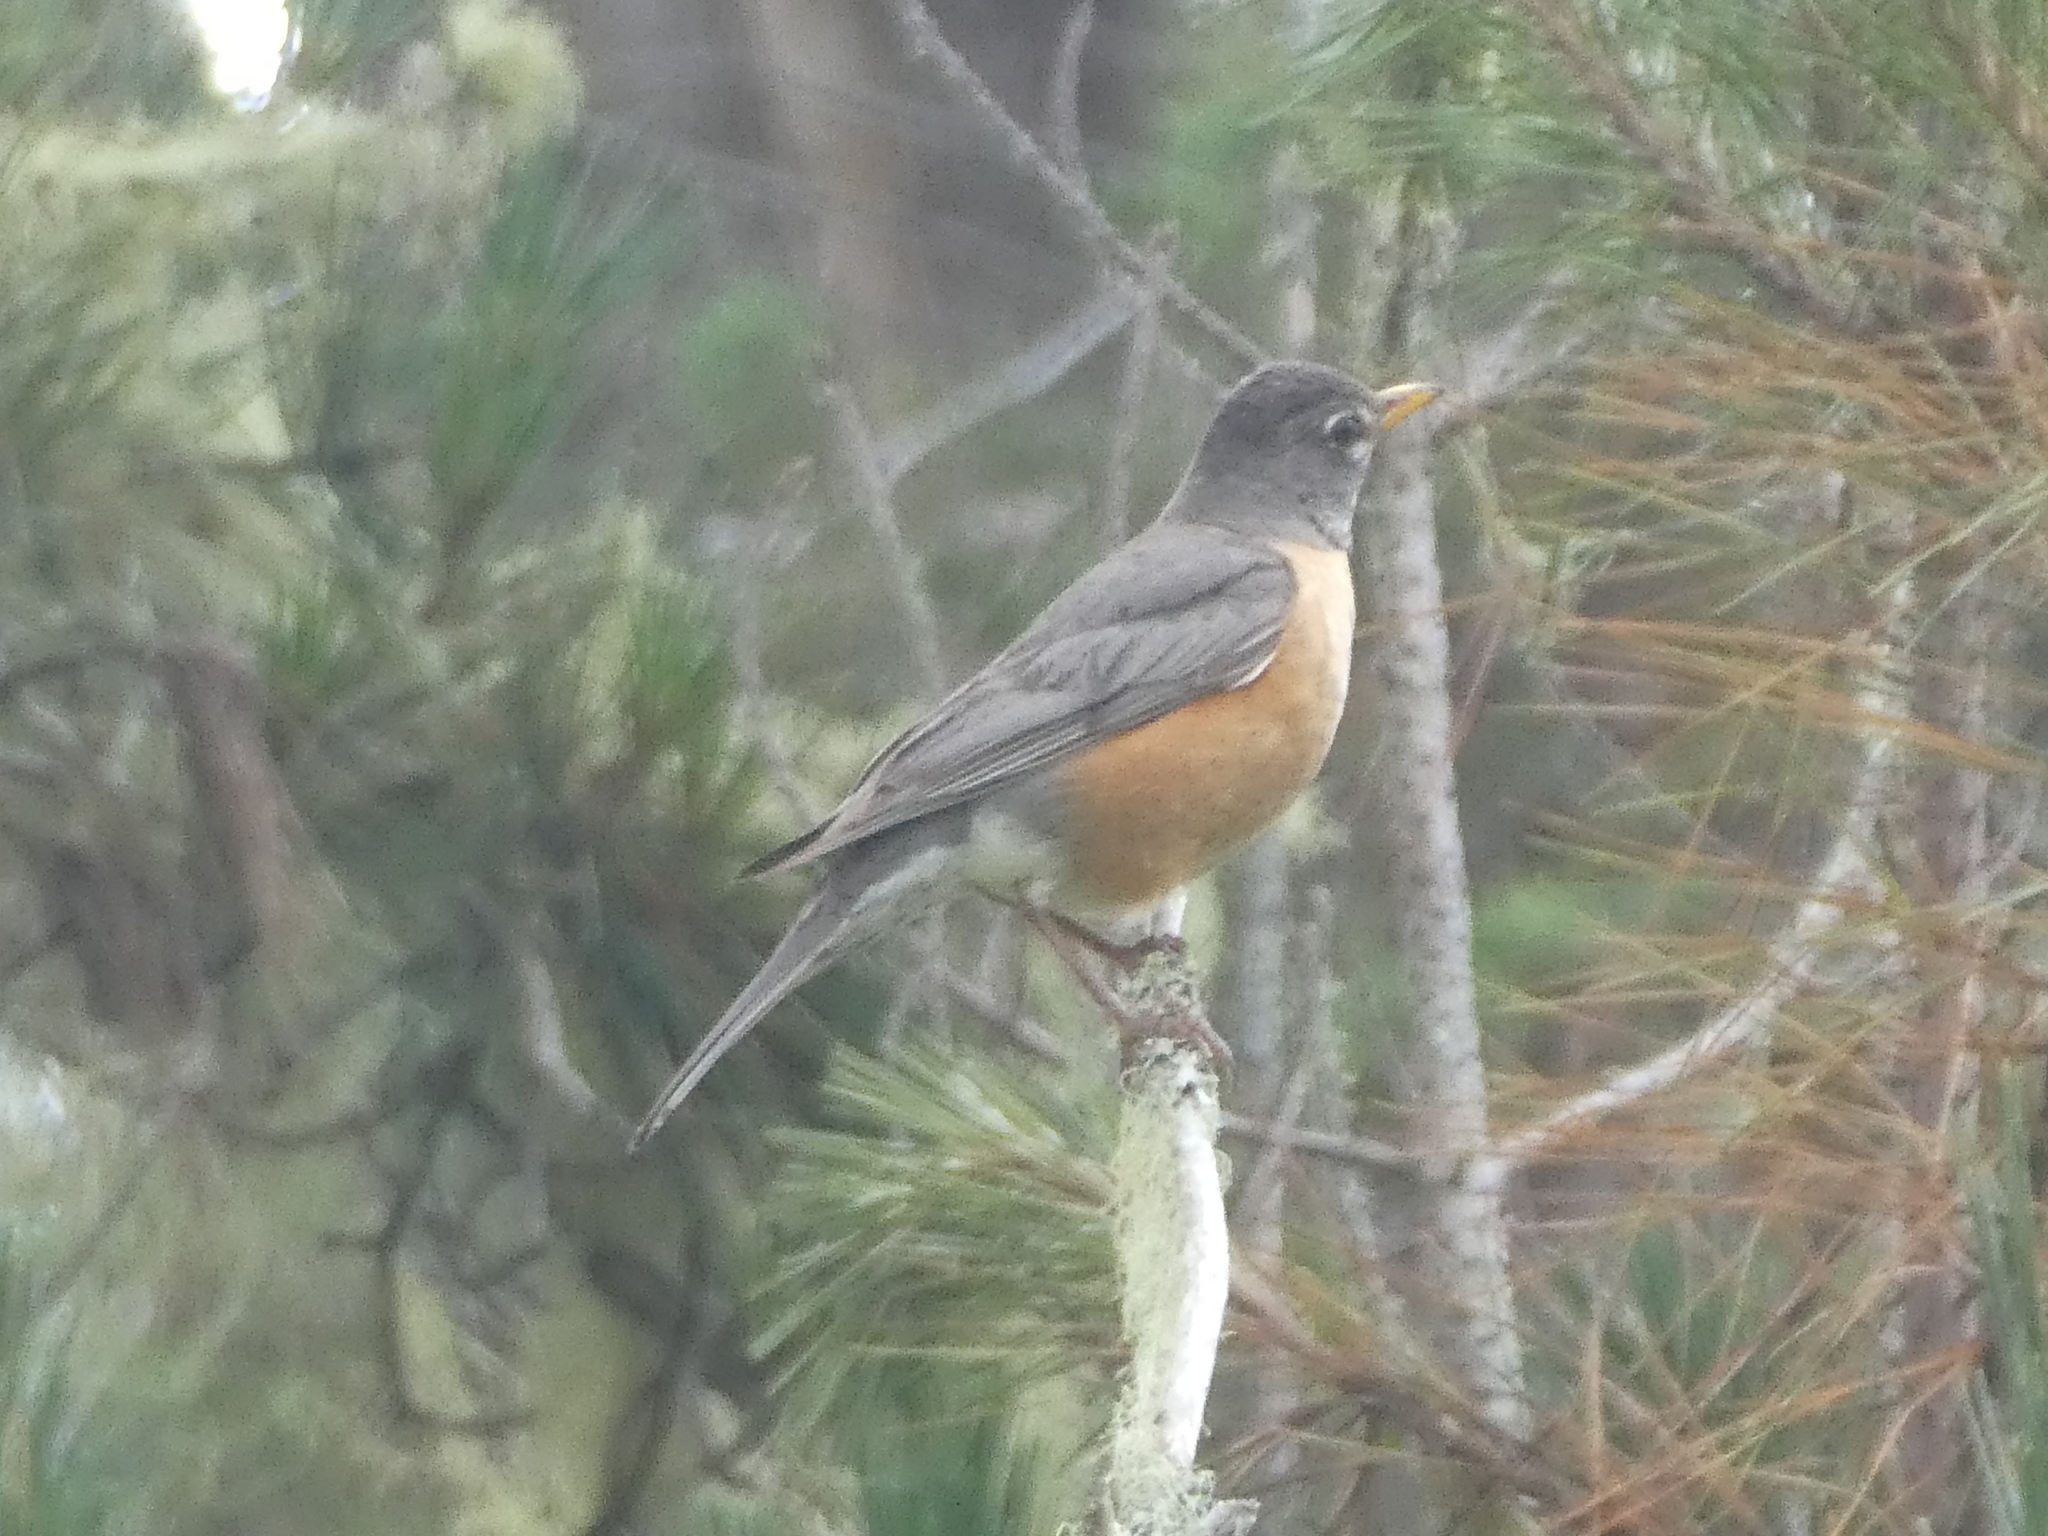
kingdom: Animalia
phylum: Chordata
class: Aves
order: Passeriformes
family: Turdidae
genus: Turdus
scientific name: Turdus migratorius
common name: American robin
